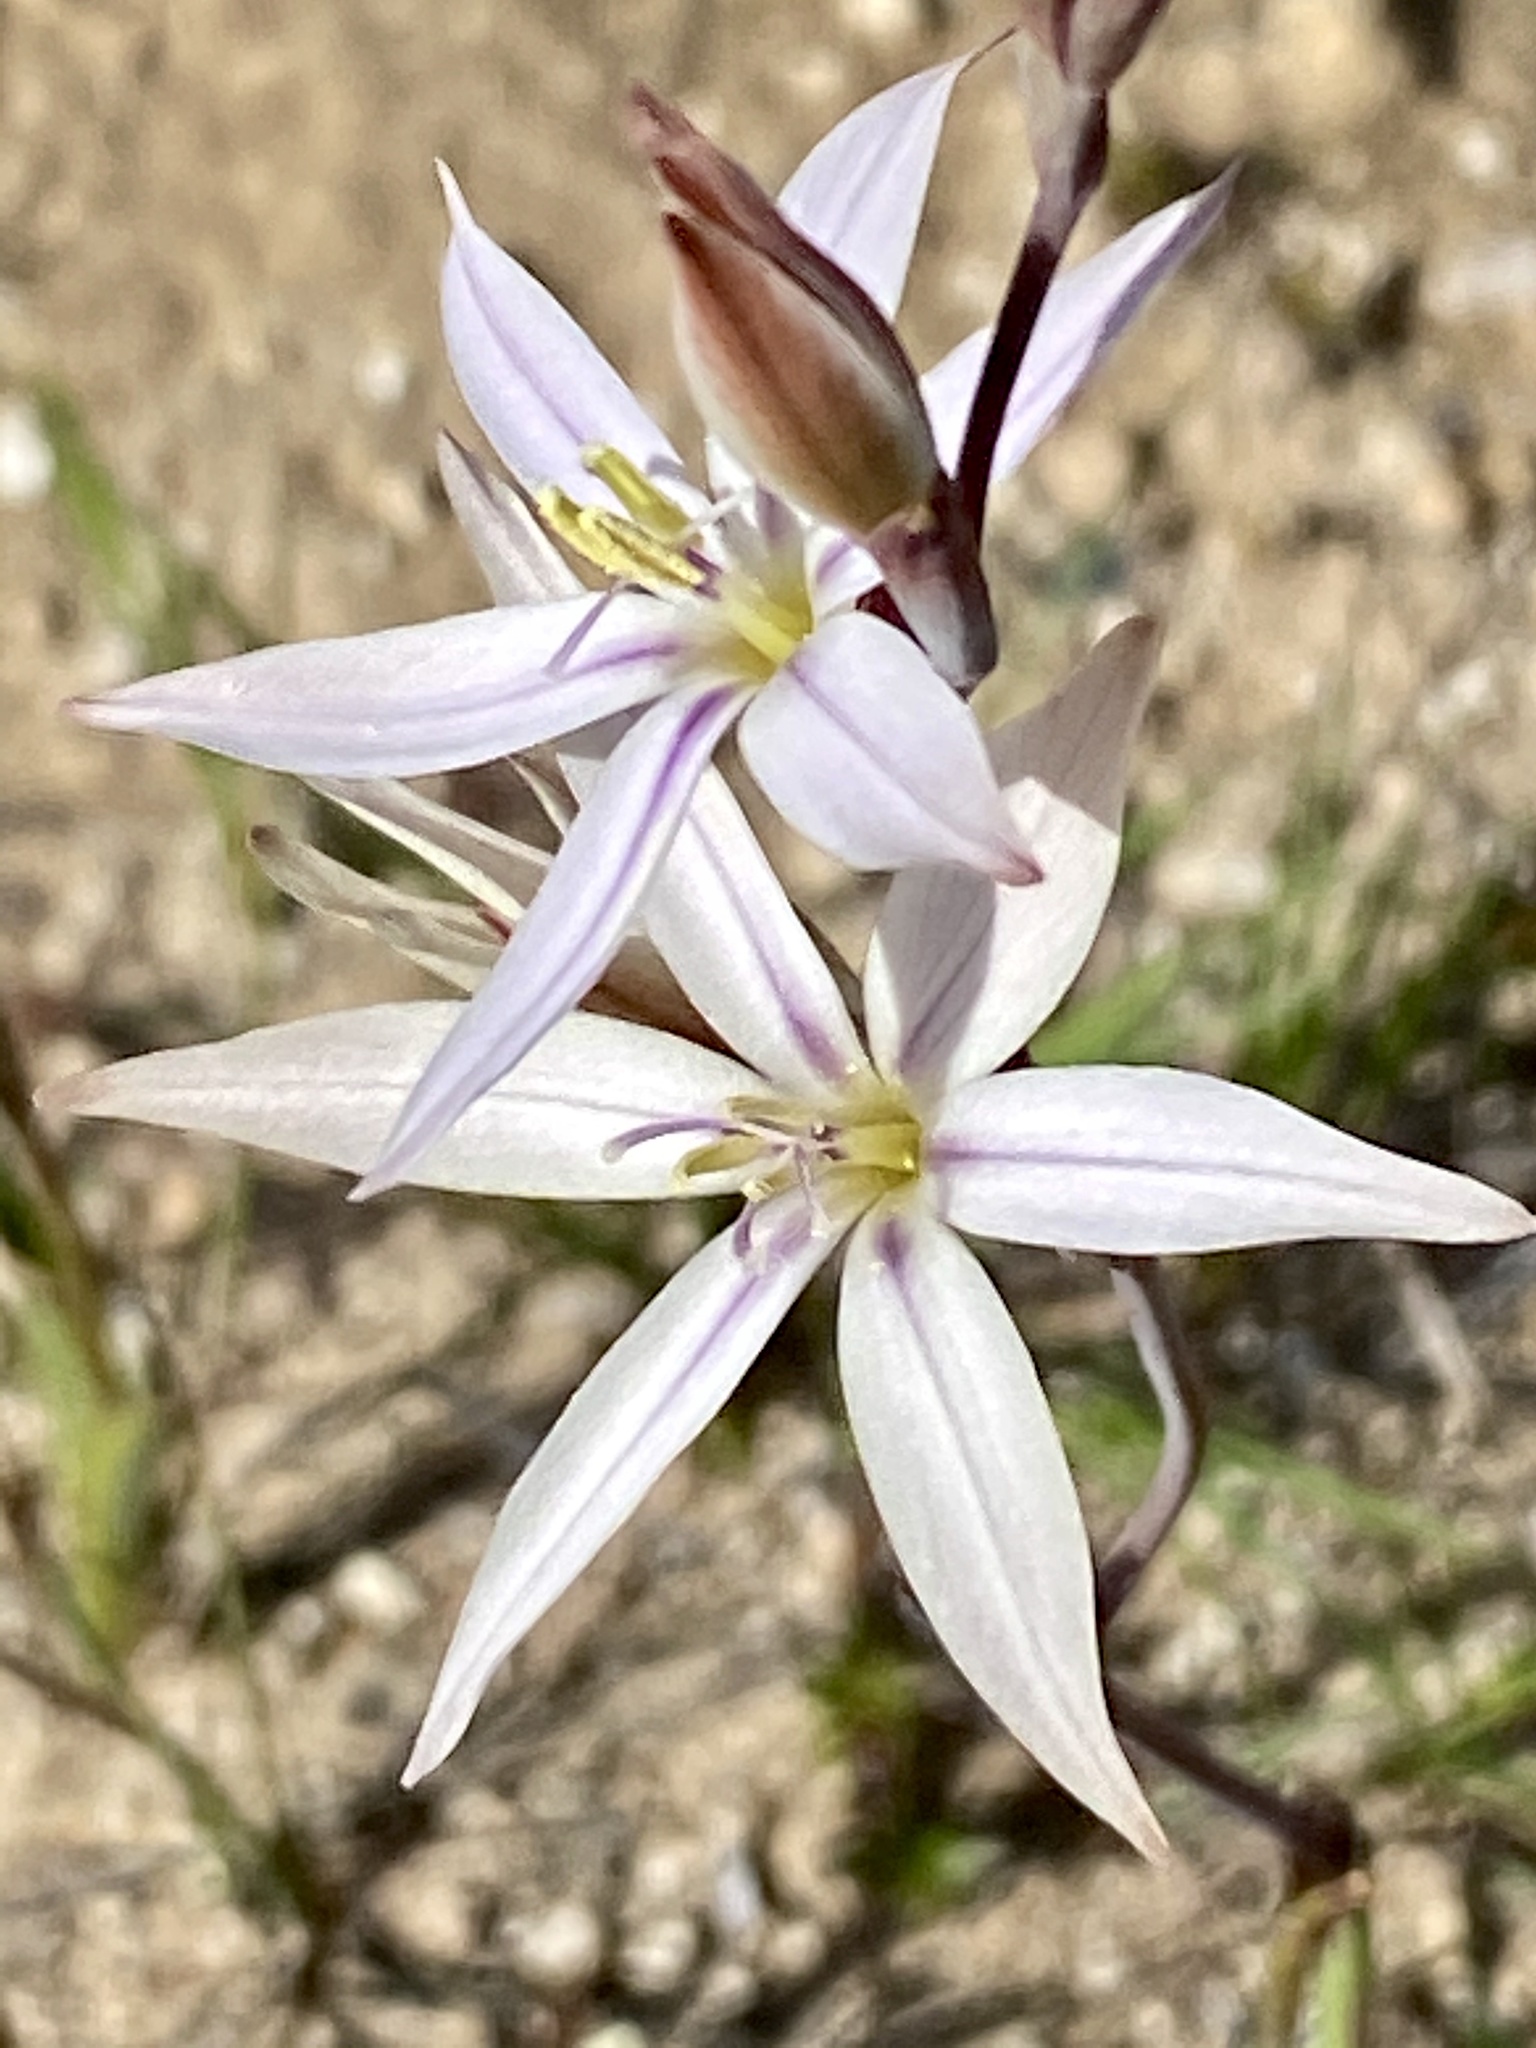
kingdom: Plantae
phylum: Tracheophyta
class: Liliopsida
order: Asparagales
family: Iridaceae
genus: Gladiolus
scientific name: Gladiolus stellatus
